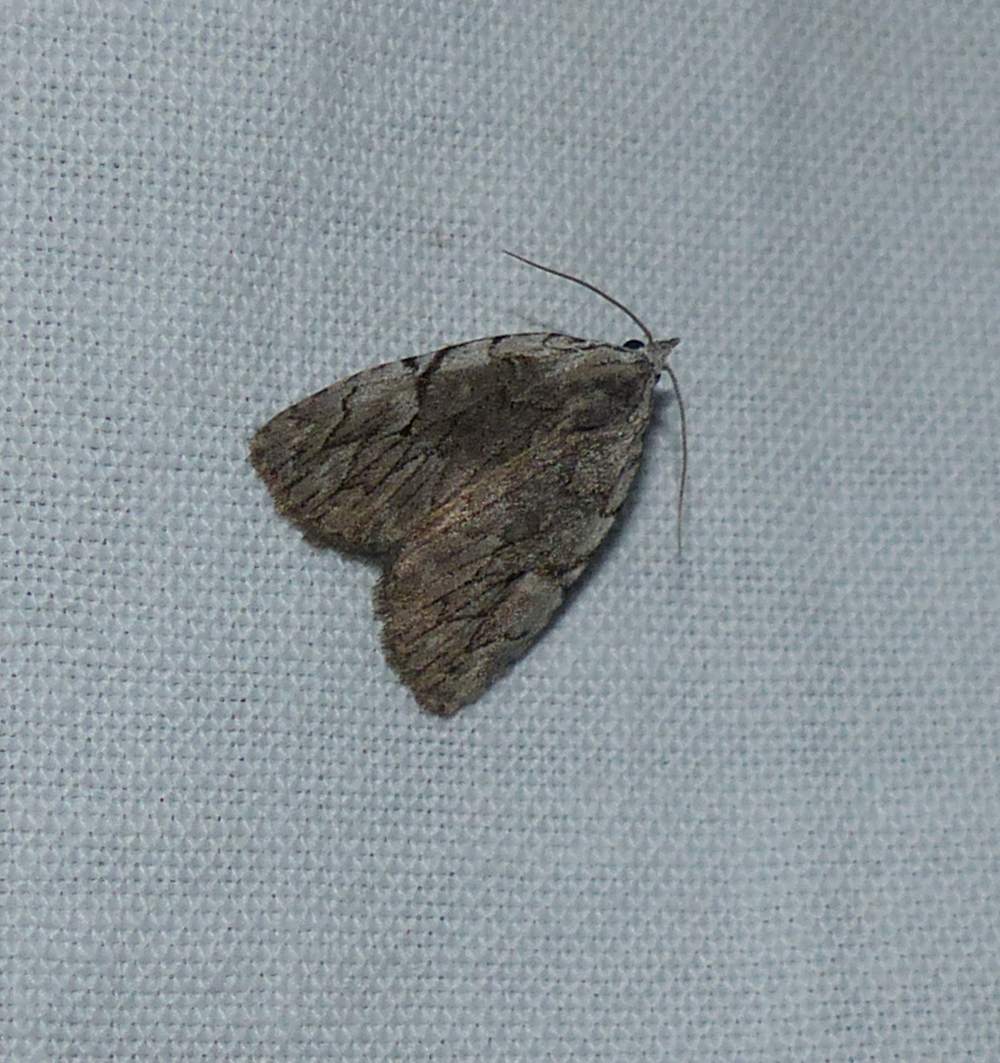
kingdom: Animalia
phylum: Arthropoda
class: Insecta
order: Lepidoptera
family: Noctuidae
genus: Balsa
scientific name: Balsa malana
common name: Many-dotted appleworm moth
